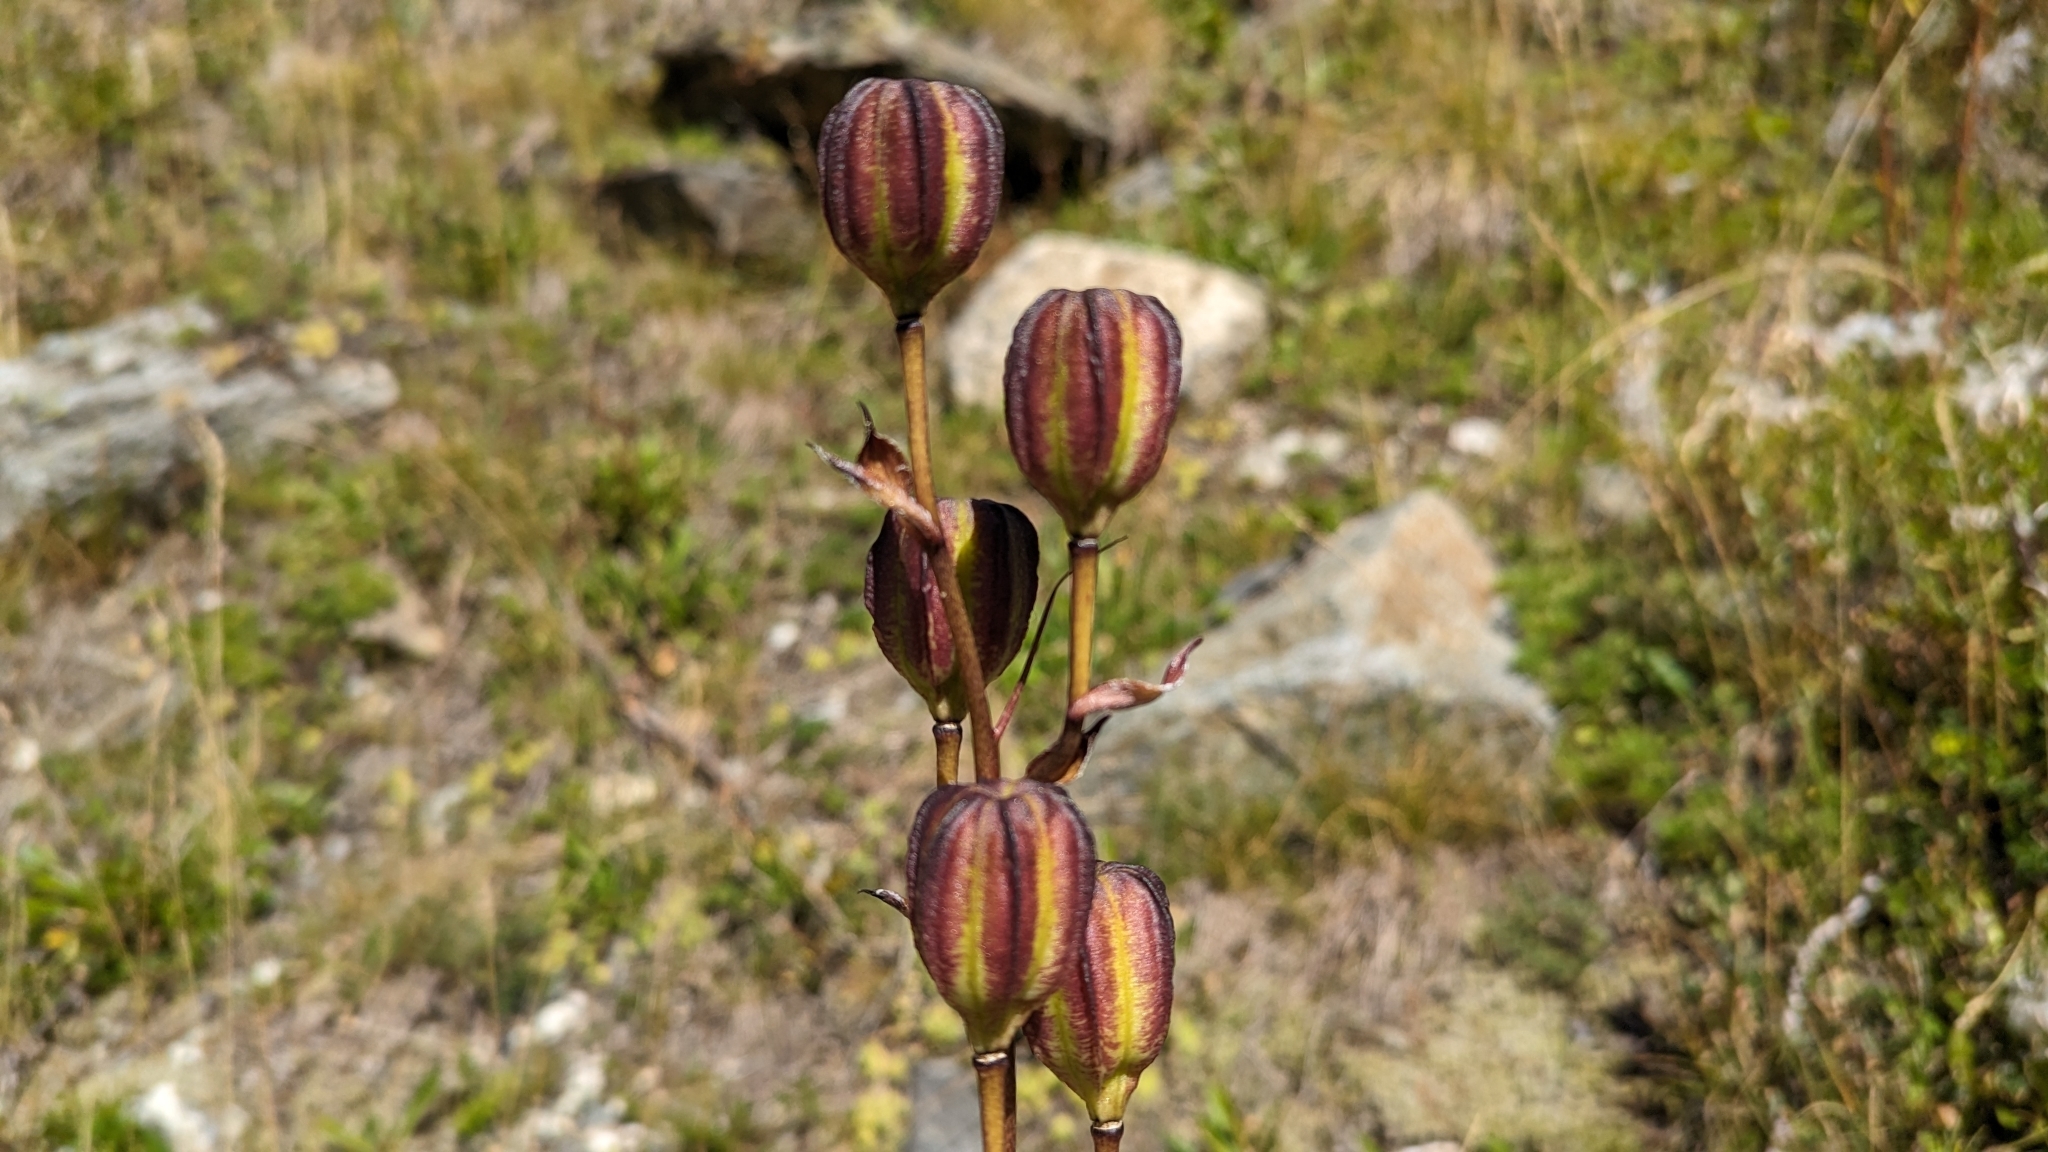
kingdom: Plantae
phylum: Tracheophyta
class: Liliopsida
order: Liliales
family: Liliaceae
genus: Lilium
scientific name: Lilium martagon
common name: Martagon lily
